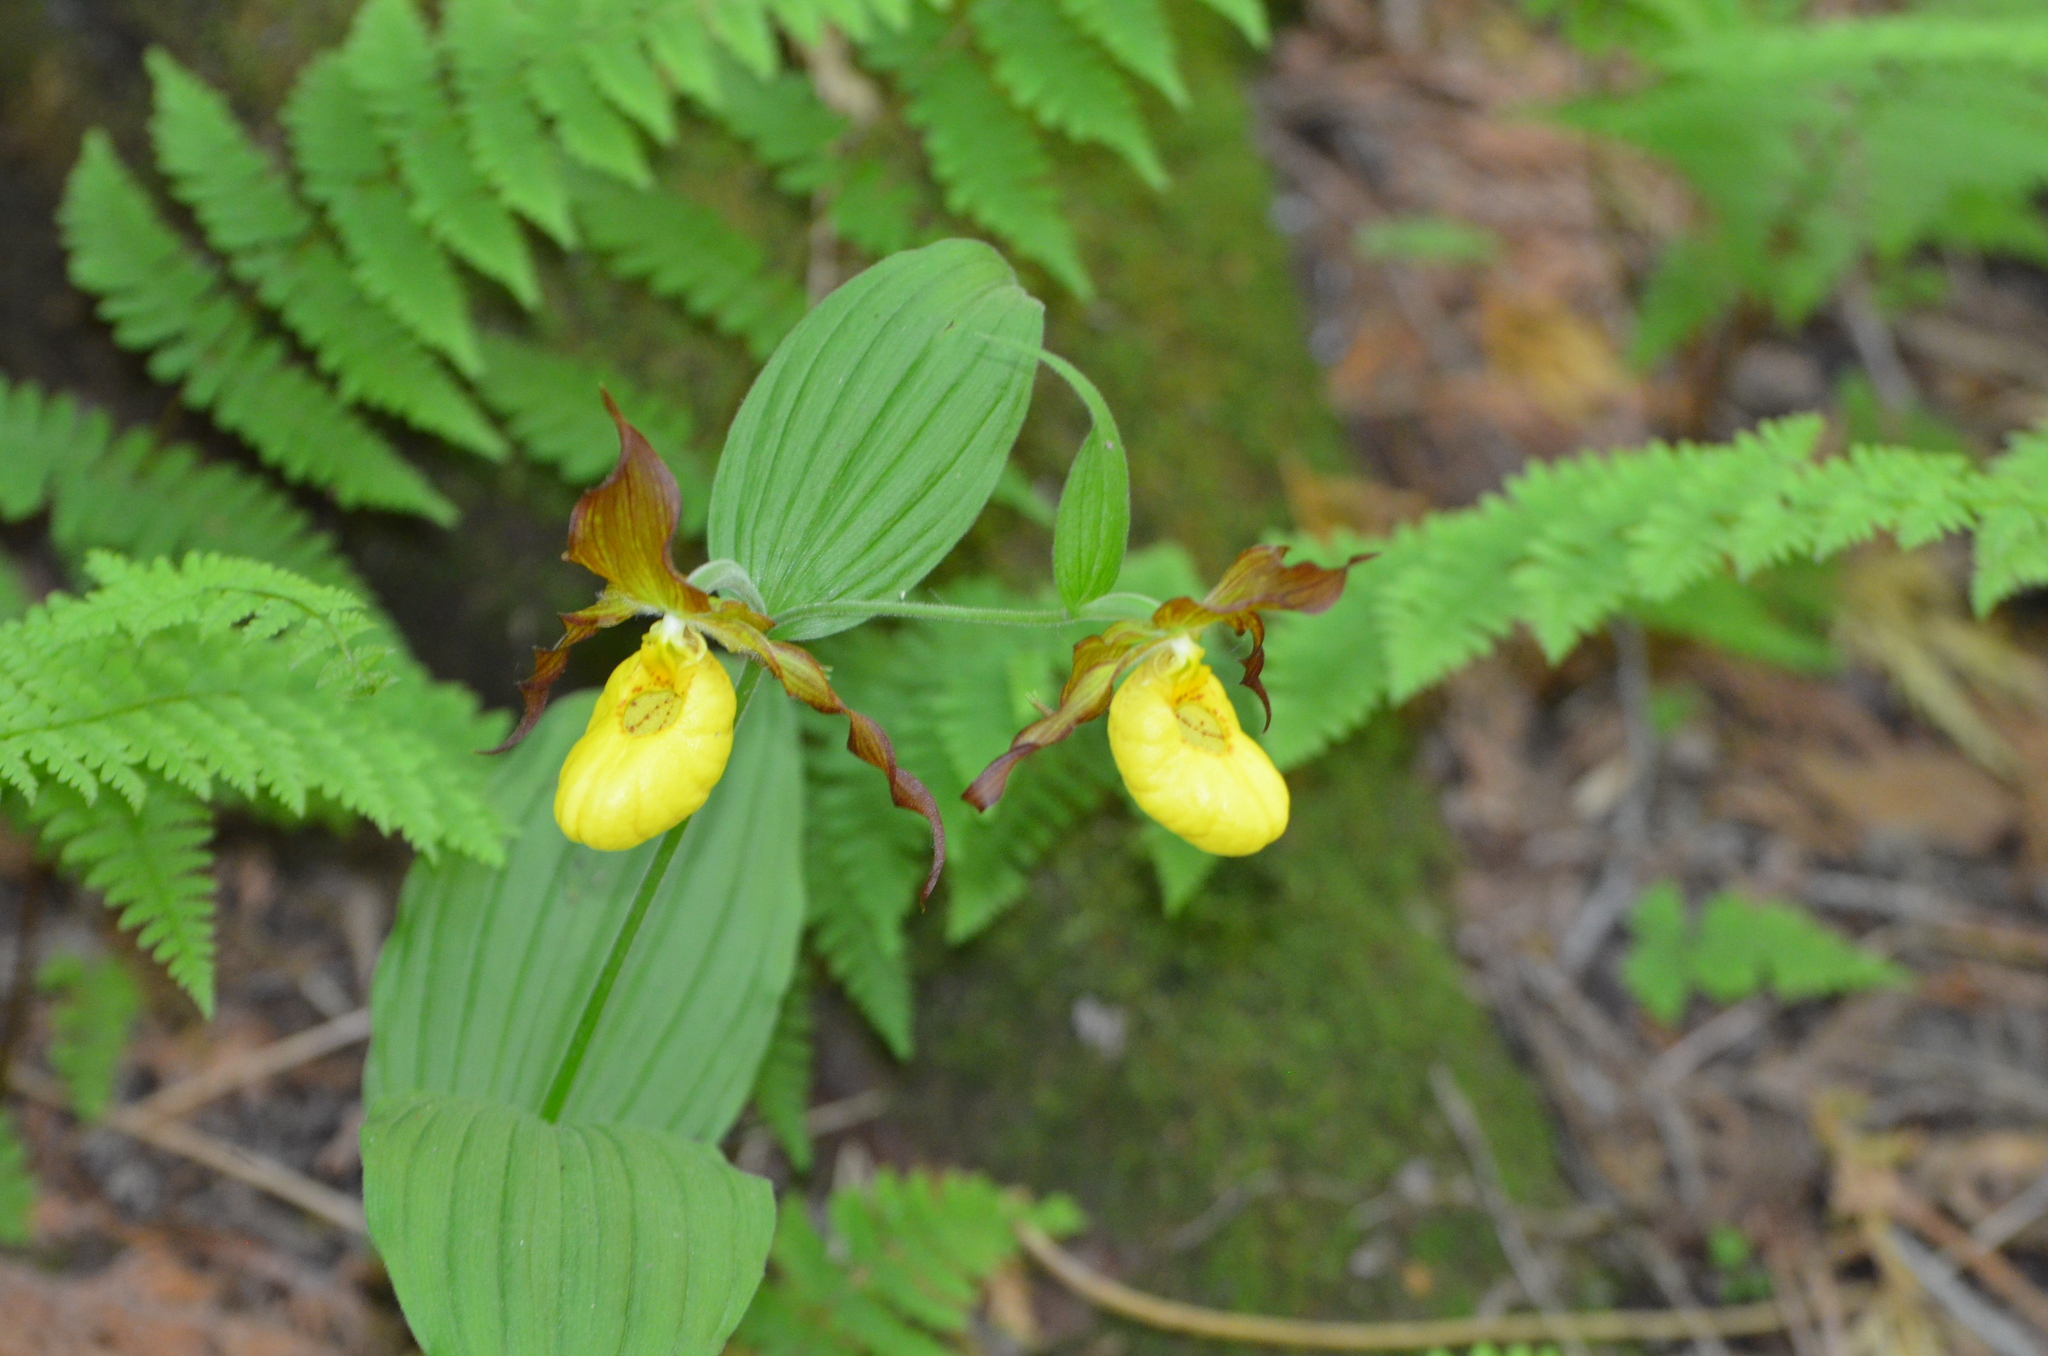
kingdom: Plantae
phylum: Tracheophyta
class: Liliopsida
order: Asparagales
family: Orchidaceae
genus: Cypripedium
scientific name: Cypripedium parviflorum
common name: American yellow lady's-slipper
